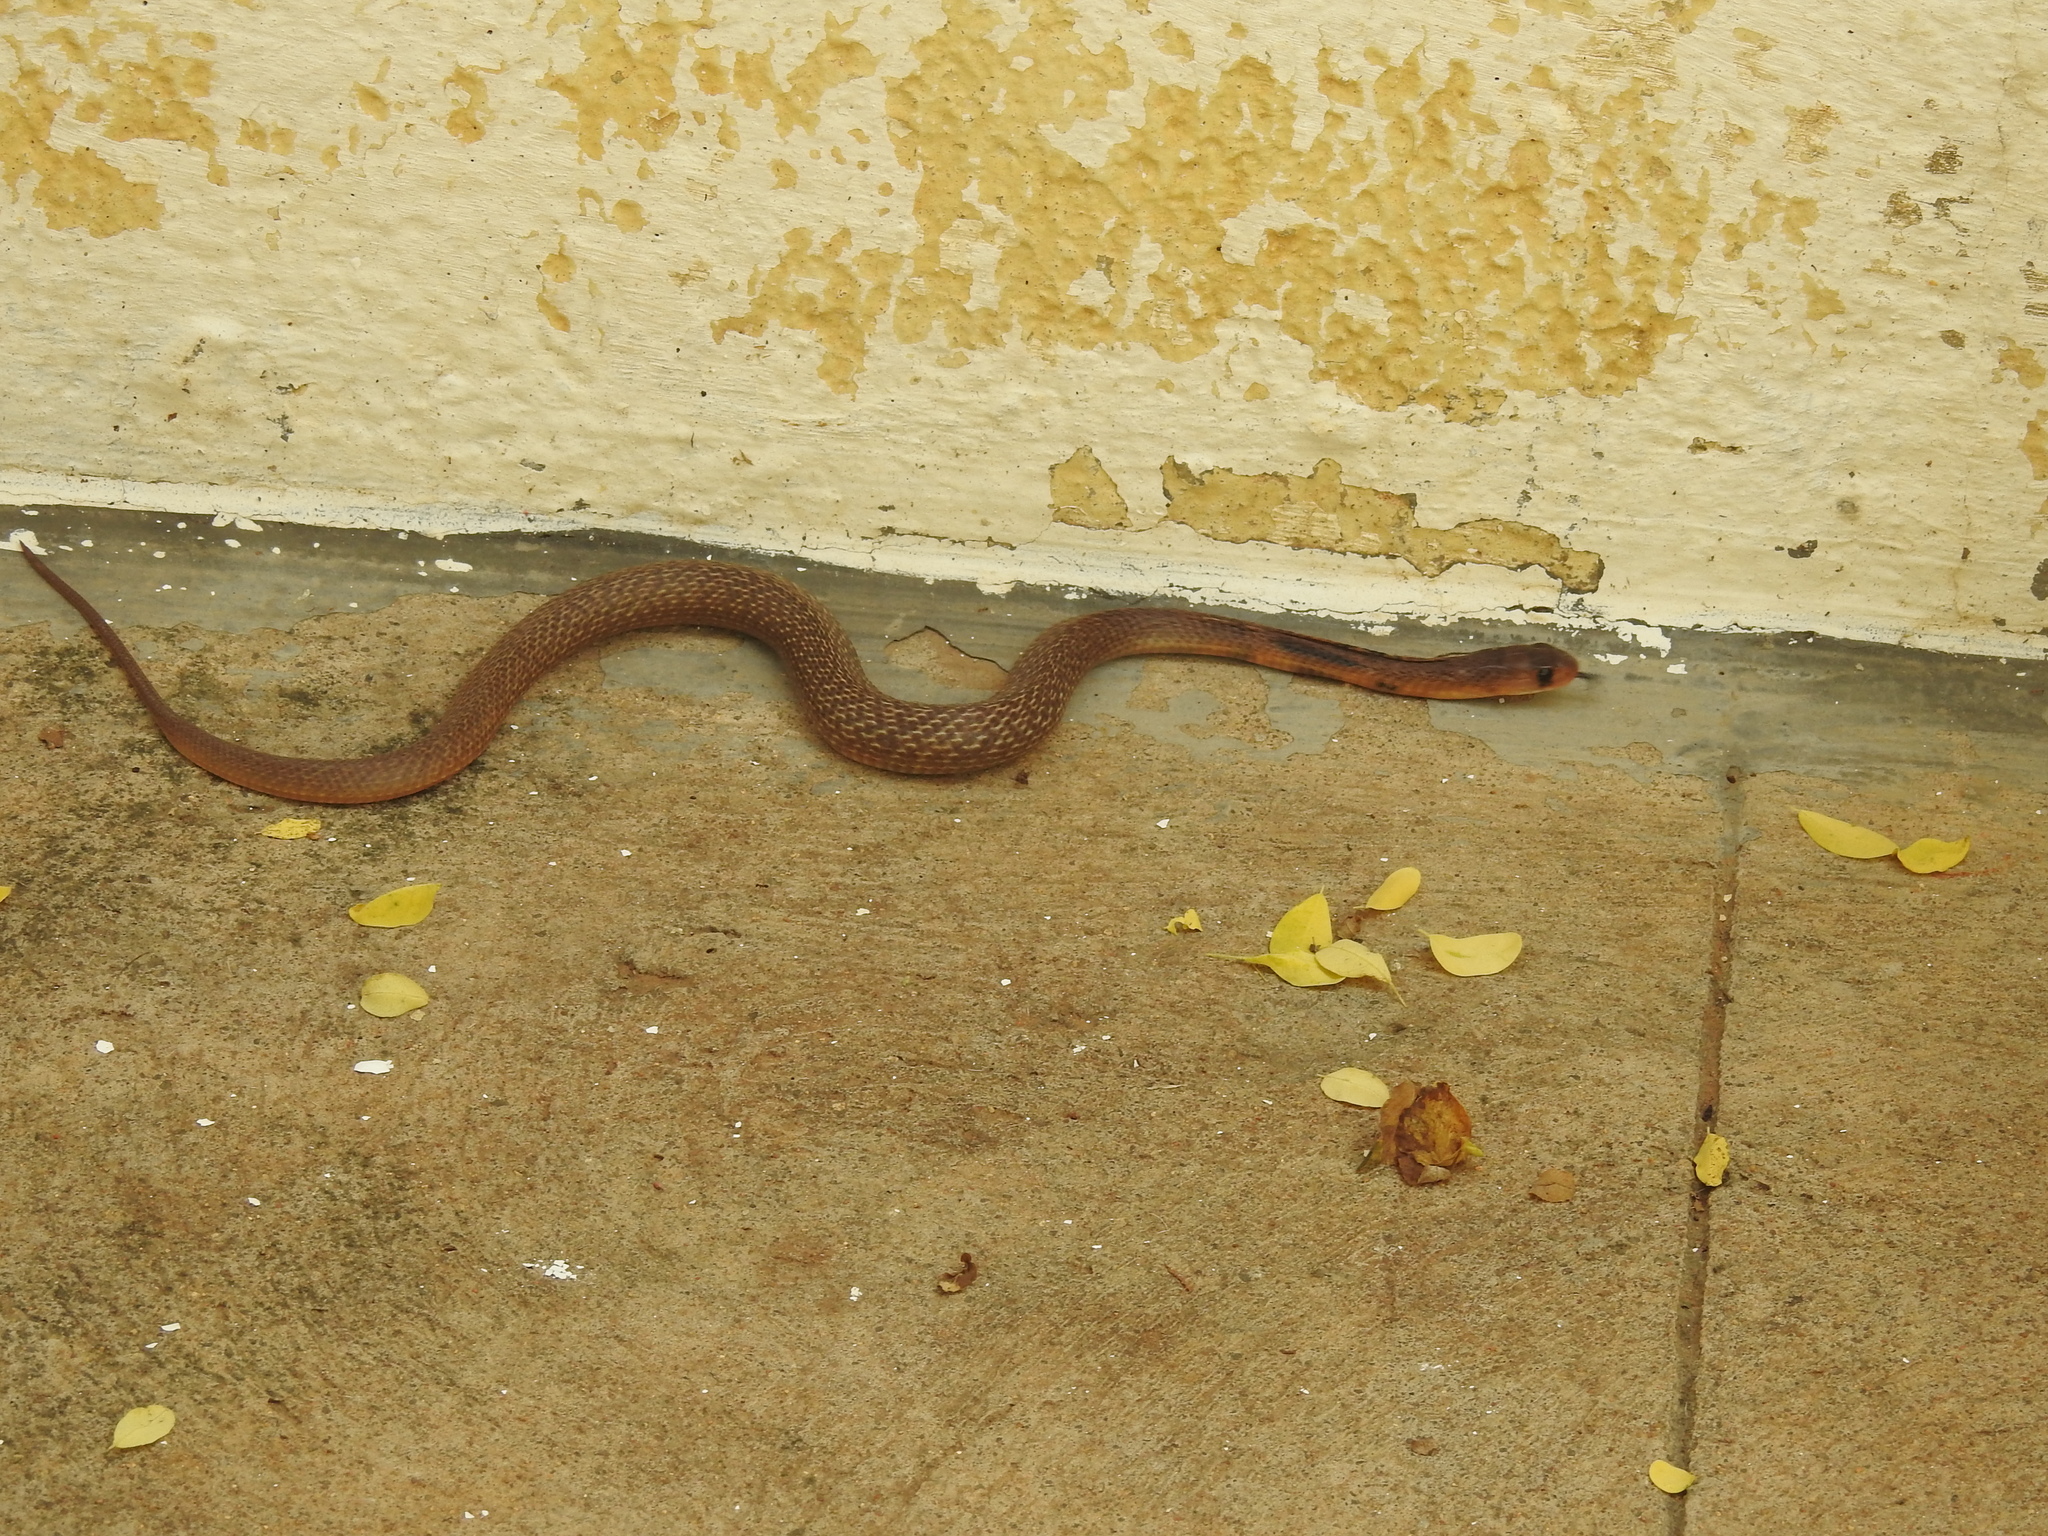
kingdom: Animalia
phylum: Chordata
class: Squamata
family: Elapidae
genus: Naja
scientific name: Naja naja
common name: Indian cobra
